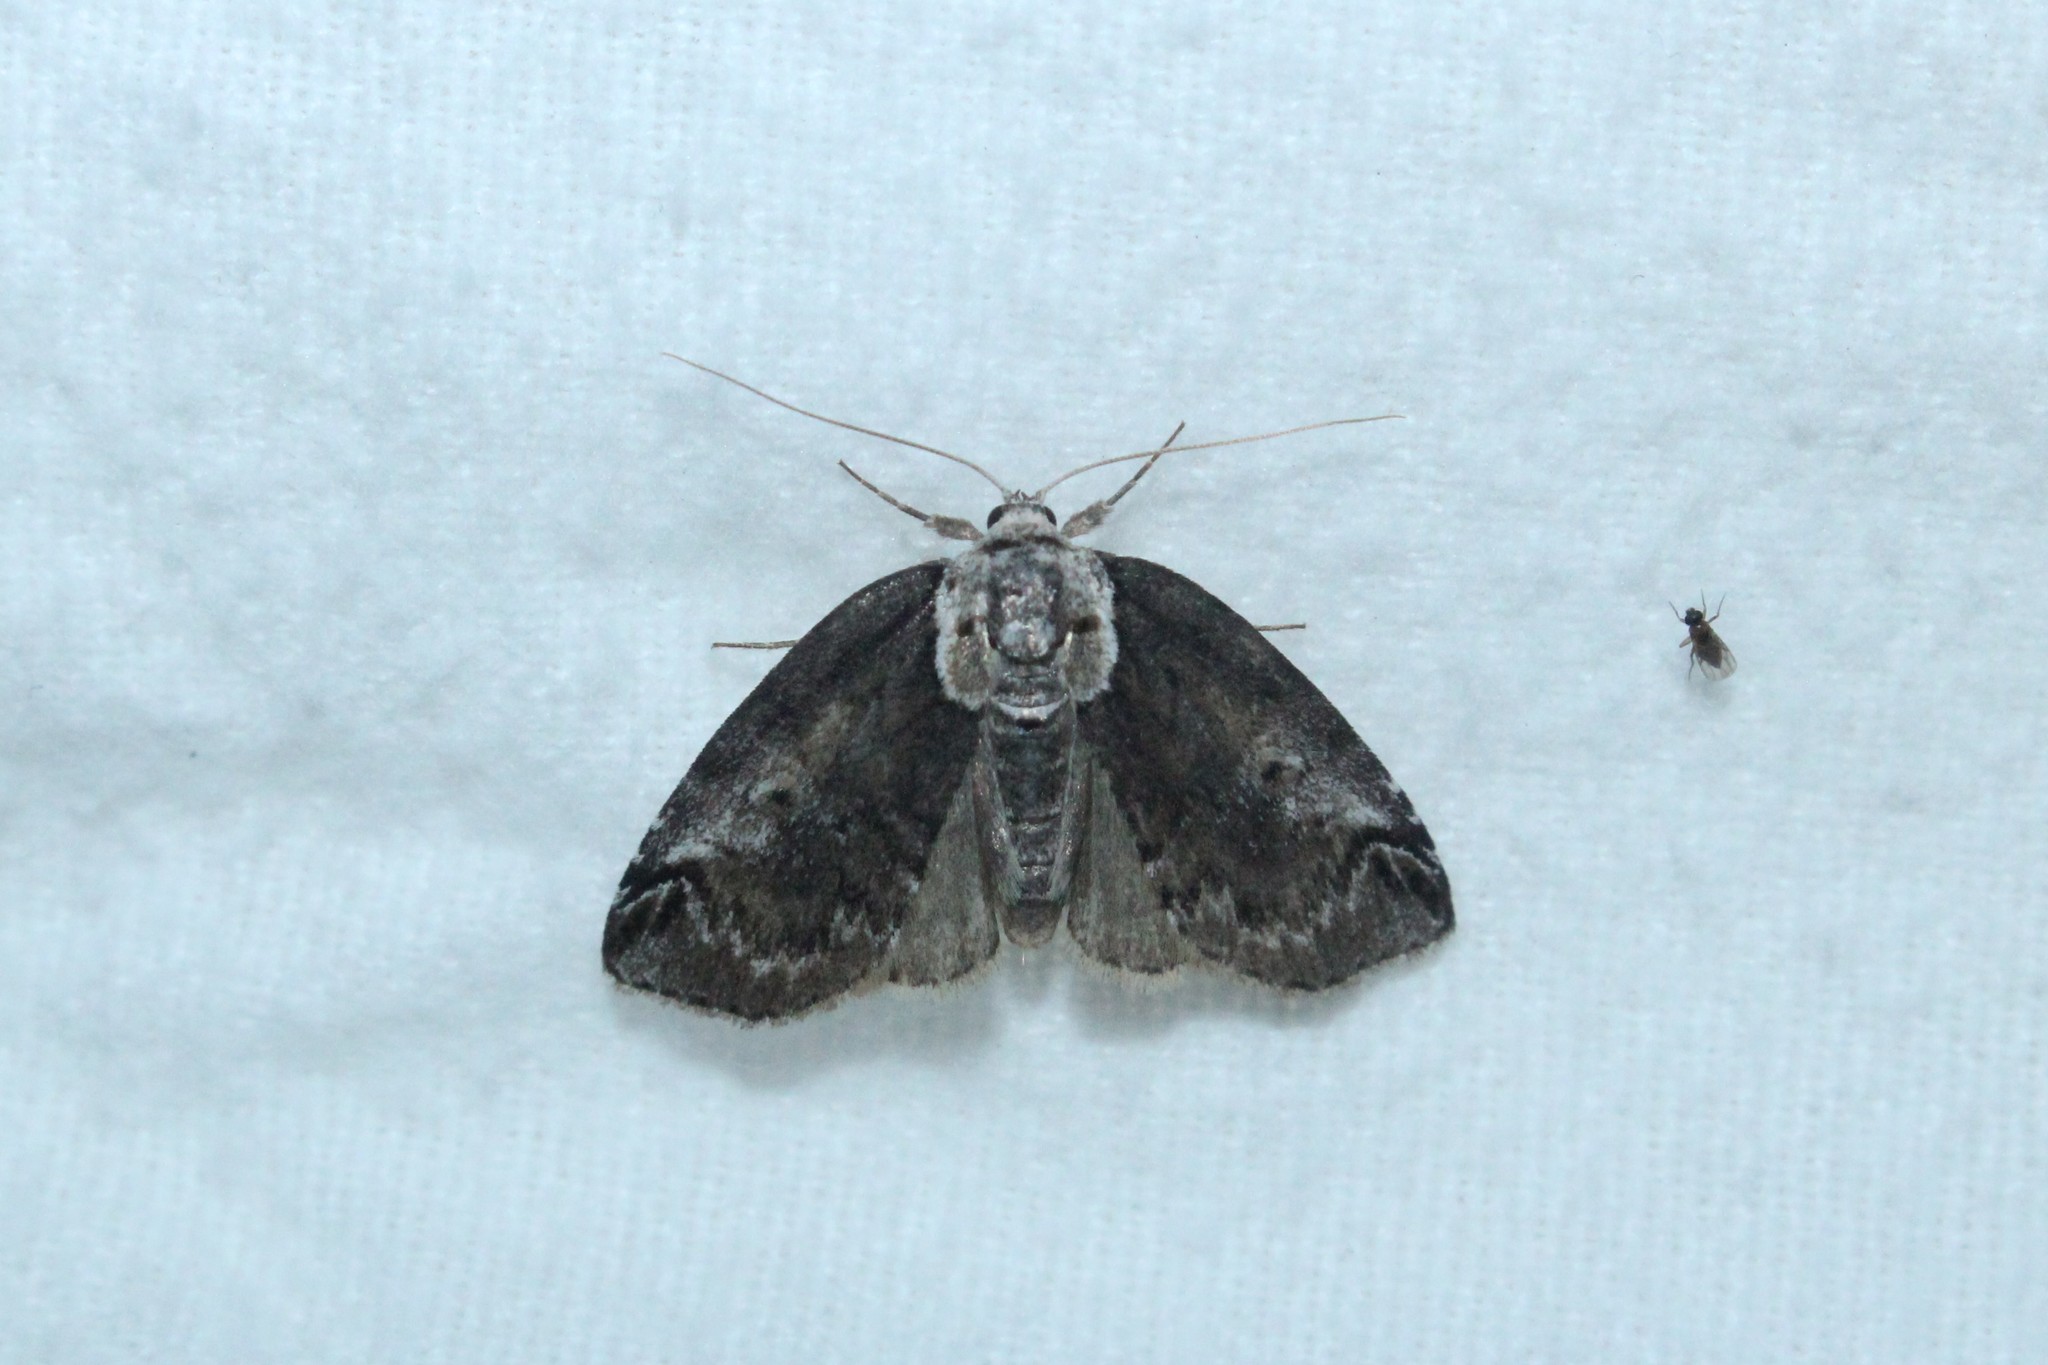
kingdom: Animalia
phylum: Arthropoda
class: Insecta
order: Lepidoptera
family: Nolidae
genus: Baileya
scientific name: Baileya ophthalmica
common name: Eyed baileya moth
